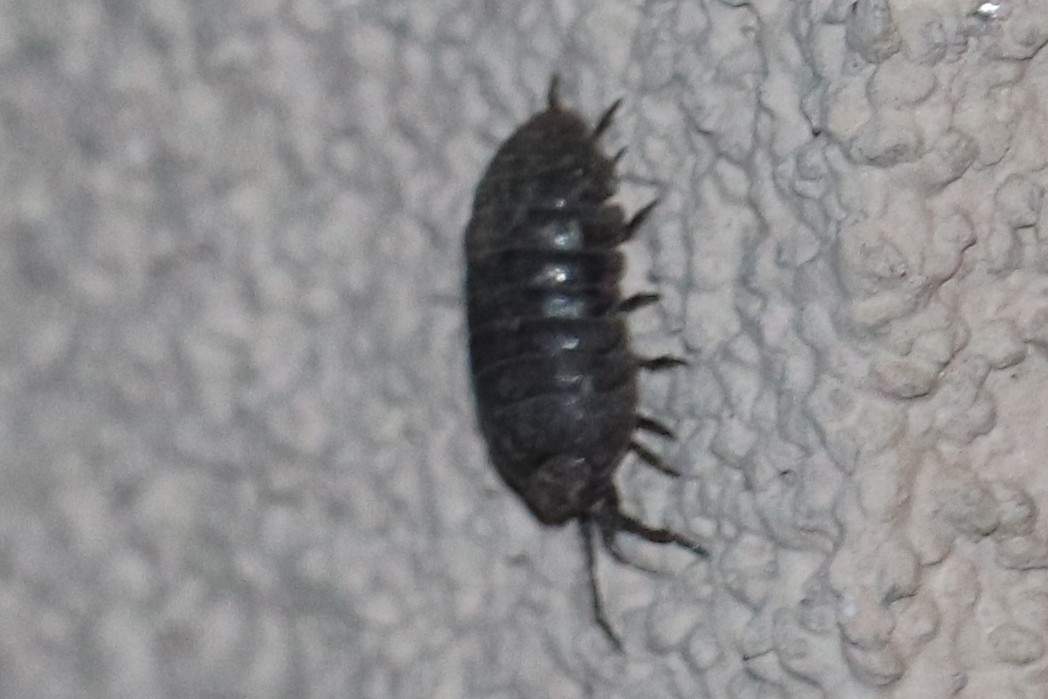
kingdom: Animalia
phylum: Arthropoda
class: Malacostraca
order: Isopoda
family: Armadillidiidae
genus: Armadillidium
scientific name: Armadillidium vulgare
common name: Common pill woodlouse
